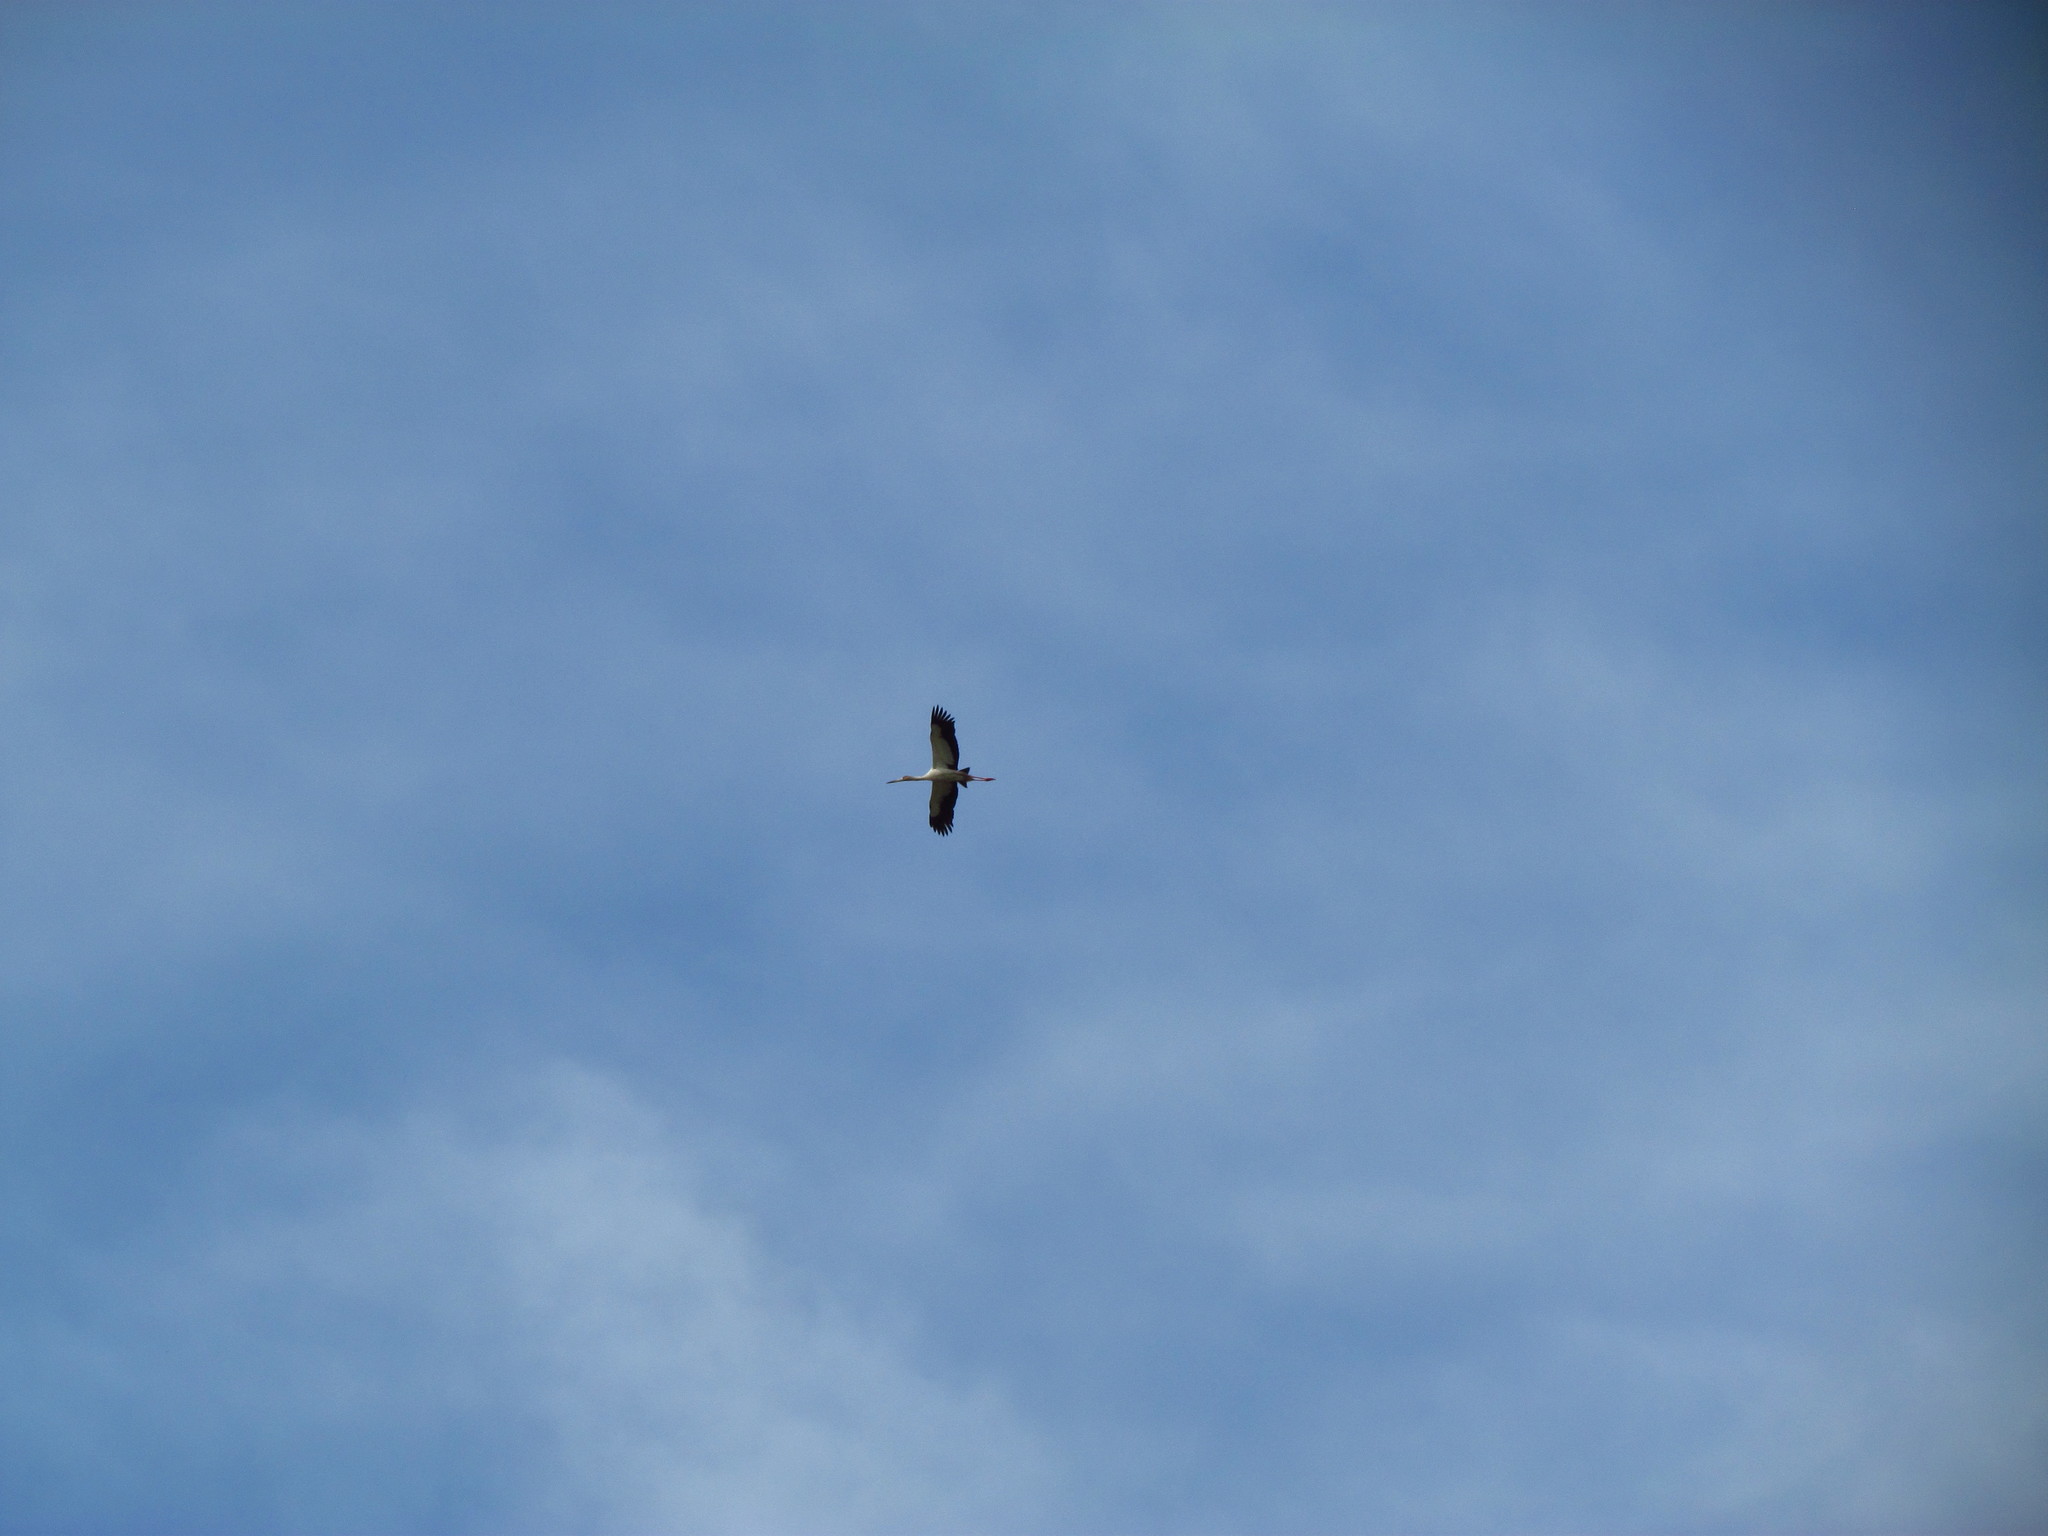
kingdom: Animalia
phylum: Chordata
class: Aves
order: Ciconiiformes
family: Ciconiidae
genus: Ciconia
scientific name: Ciconia maguari
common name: Maguari stork
